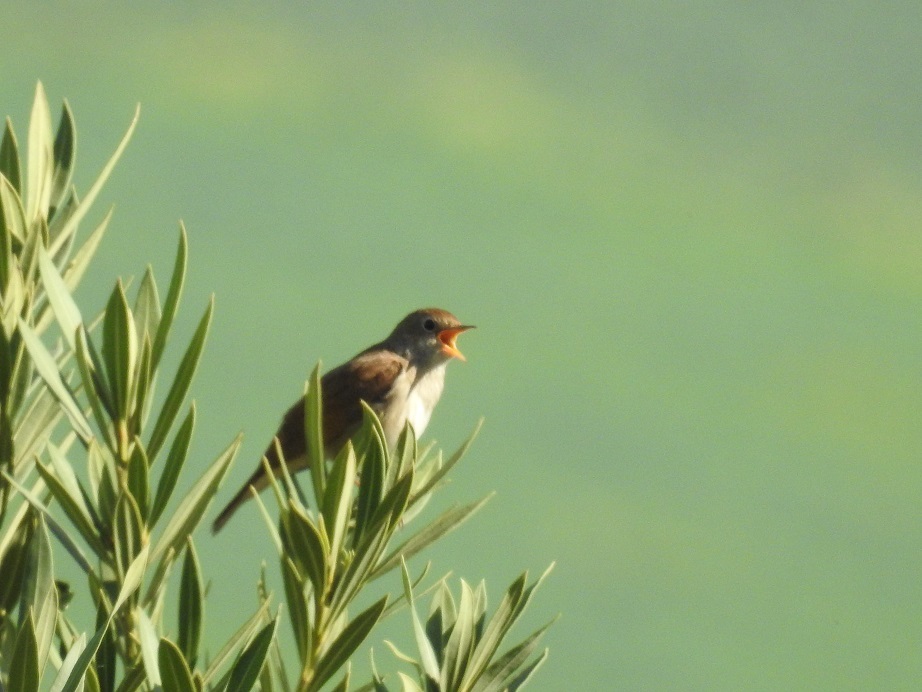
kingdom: Animalia
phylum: Chordata
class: Aves
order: Passeriformes
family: Muscicapidae
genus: Luscinia
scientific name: Luscinia megarhynchos
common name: Common nightingale
